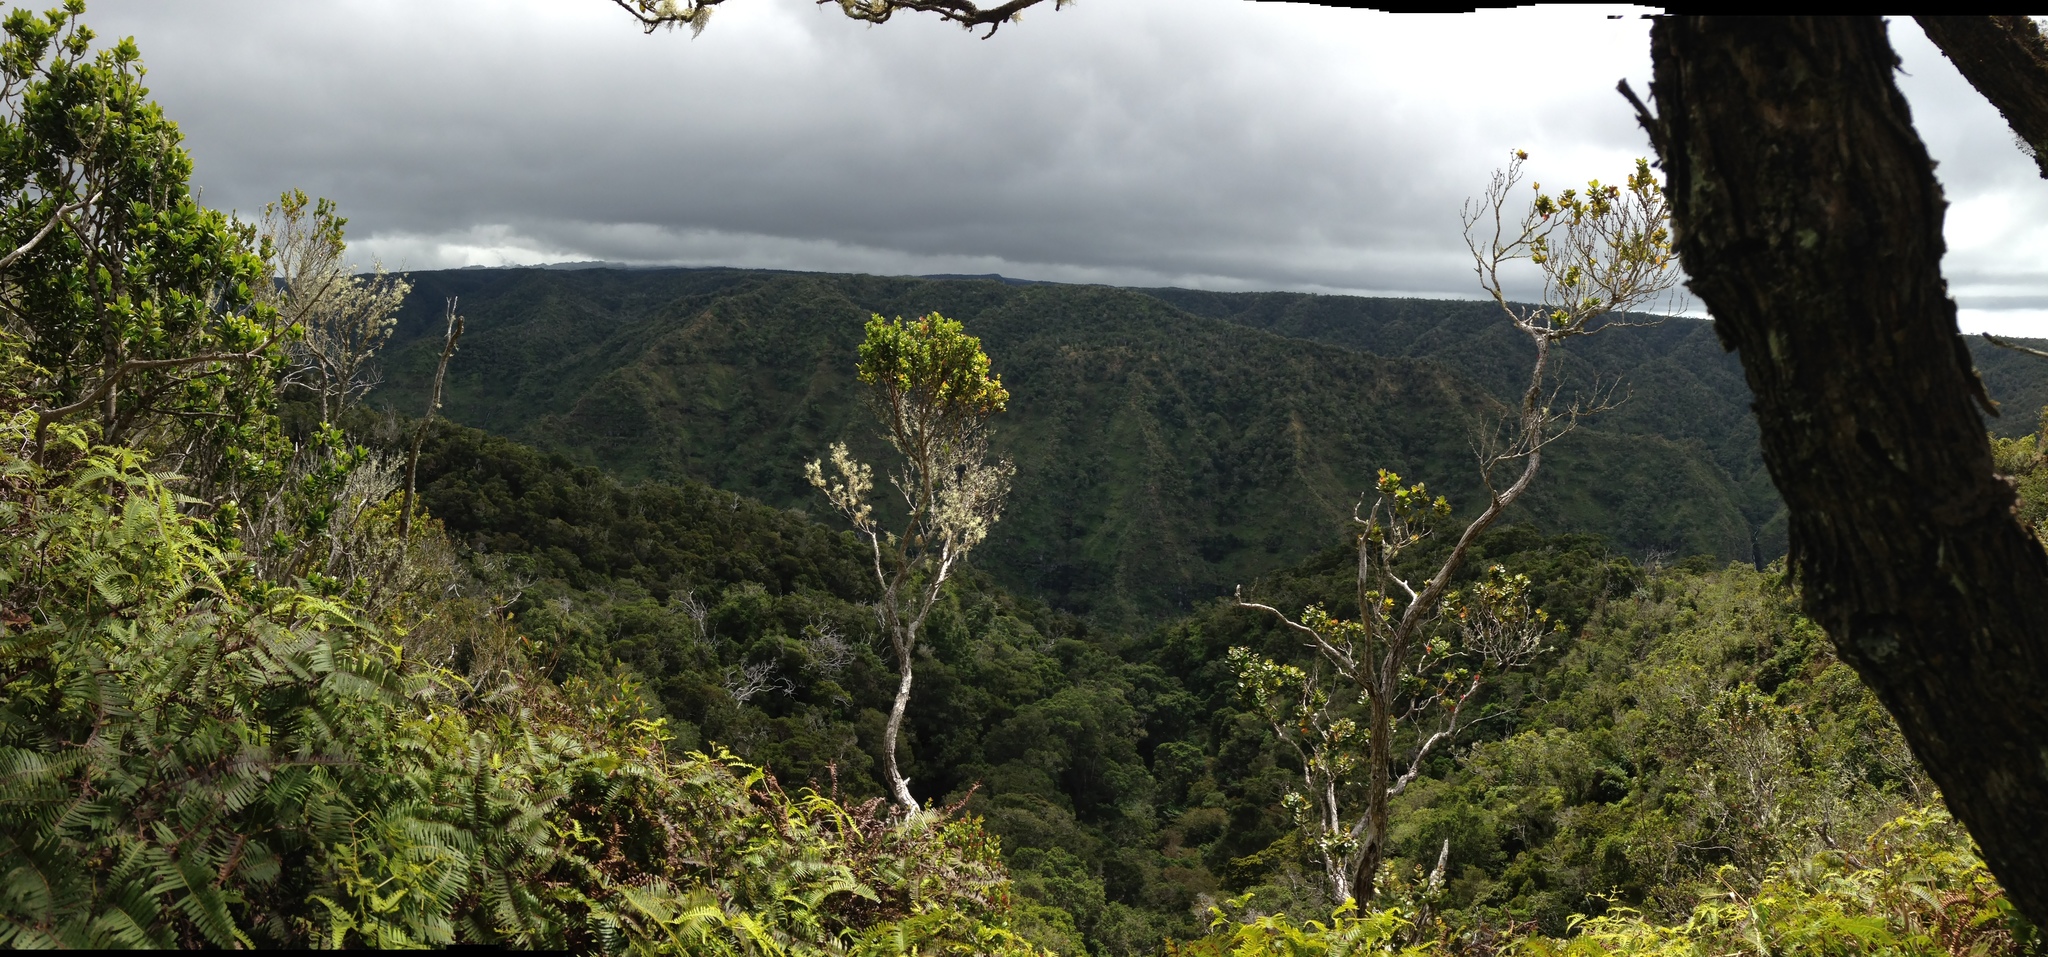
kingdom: Plantae
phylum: Tracheophyta
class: Magnoliopsida
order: Myrtales
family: Myrtaceae
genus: Metrosideros
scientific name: Metrosideros polymorpha
